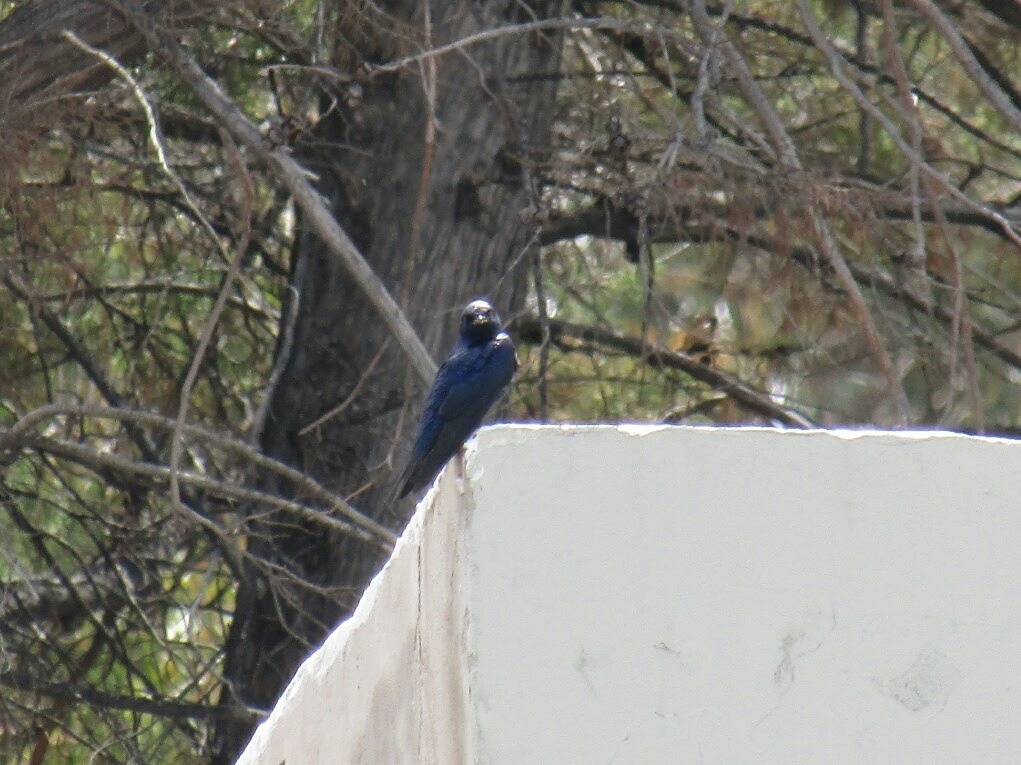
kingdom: Animalia
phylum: Chordata
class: Aves
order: Passeriformes
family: Hirundinidae
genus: Progne
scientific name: Progne elegans
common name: Southern martin
